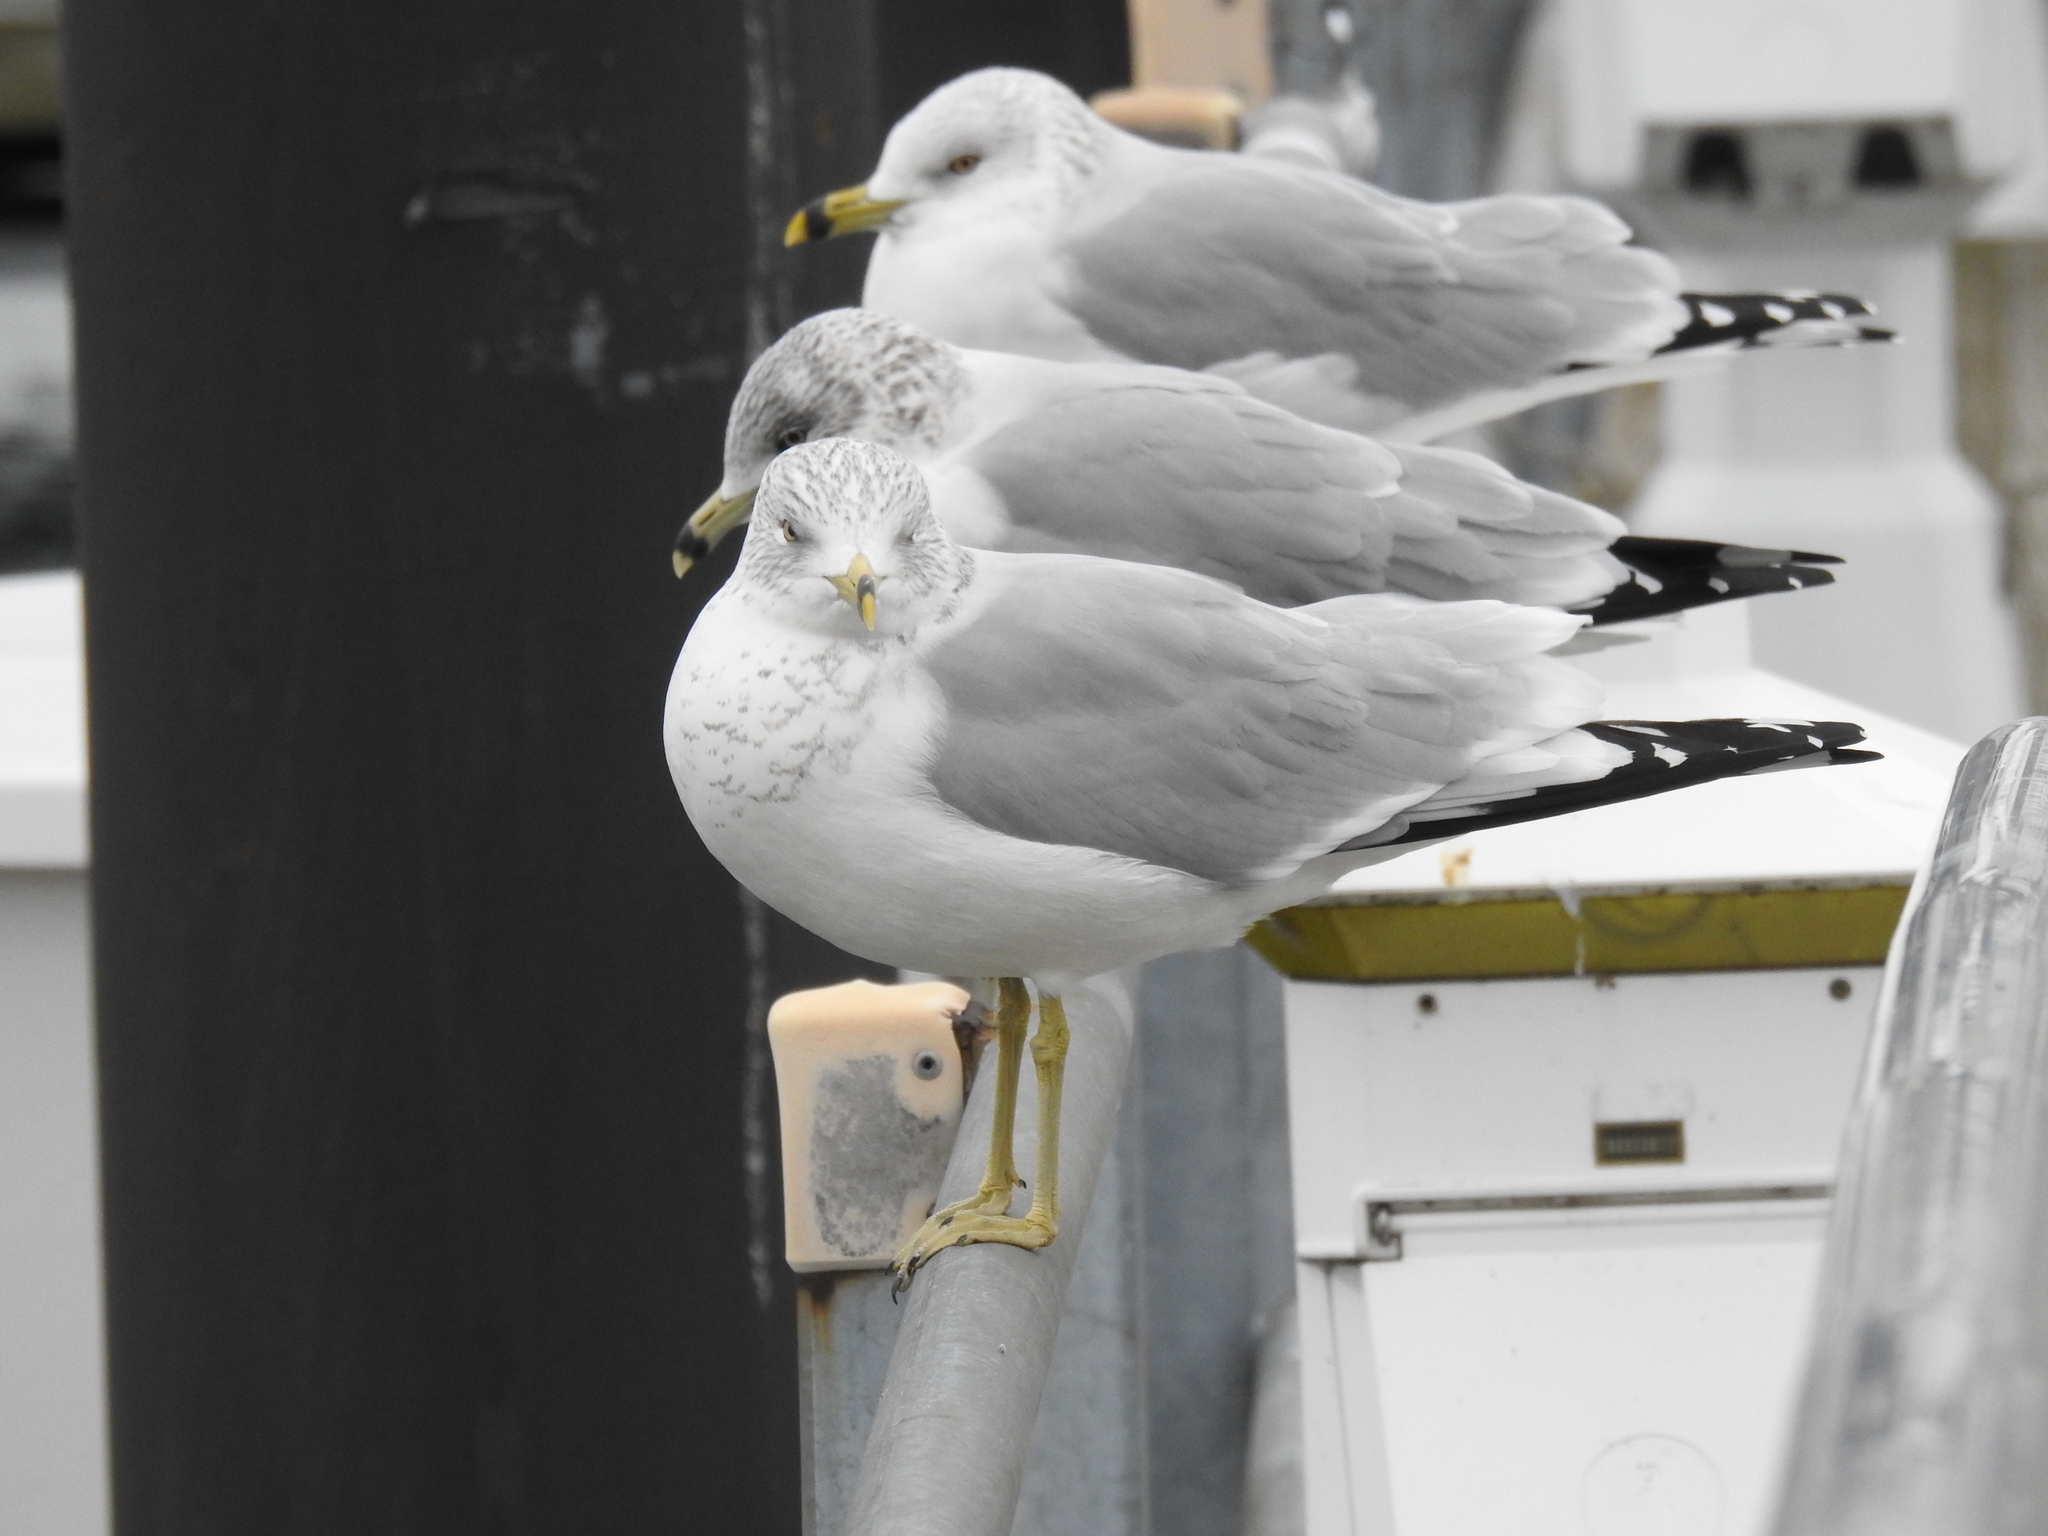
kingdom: Animalia
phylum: Chordata
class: Aves
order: Charadriiformes
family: Laridae
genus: Larus
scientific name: Larus delawarensis
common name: Ring-billed gull
